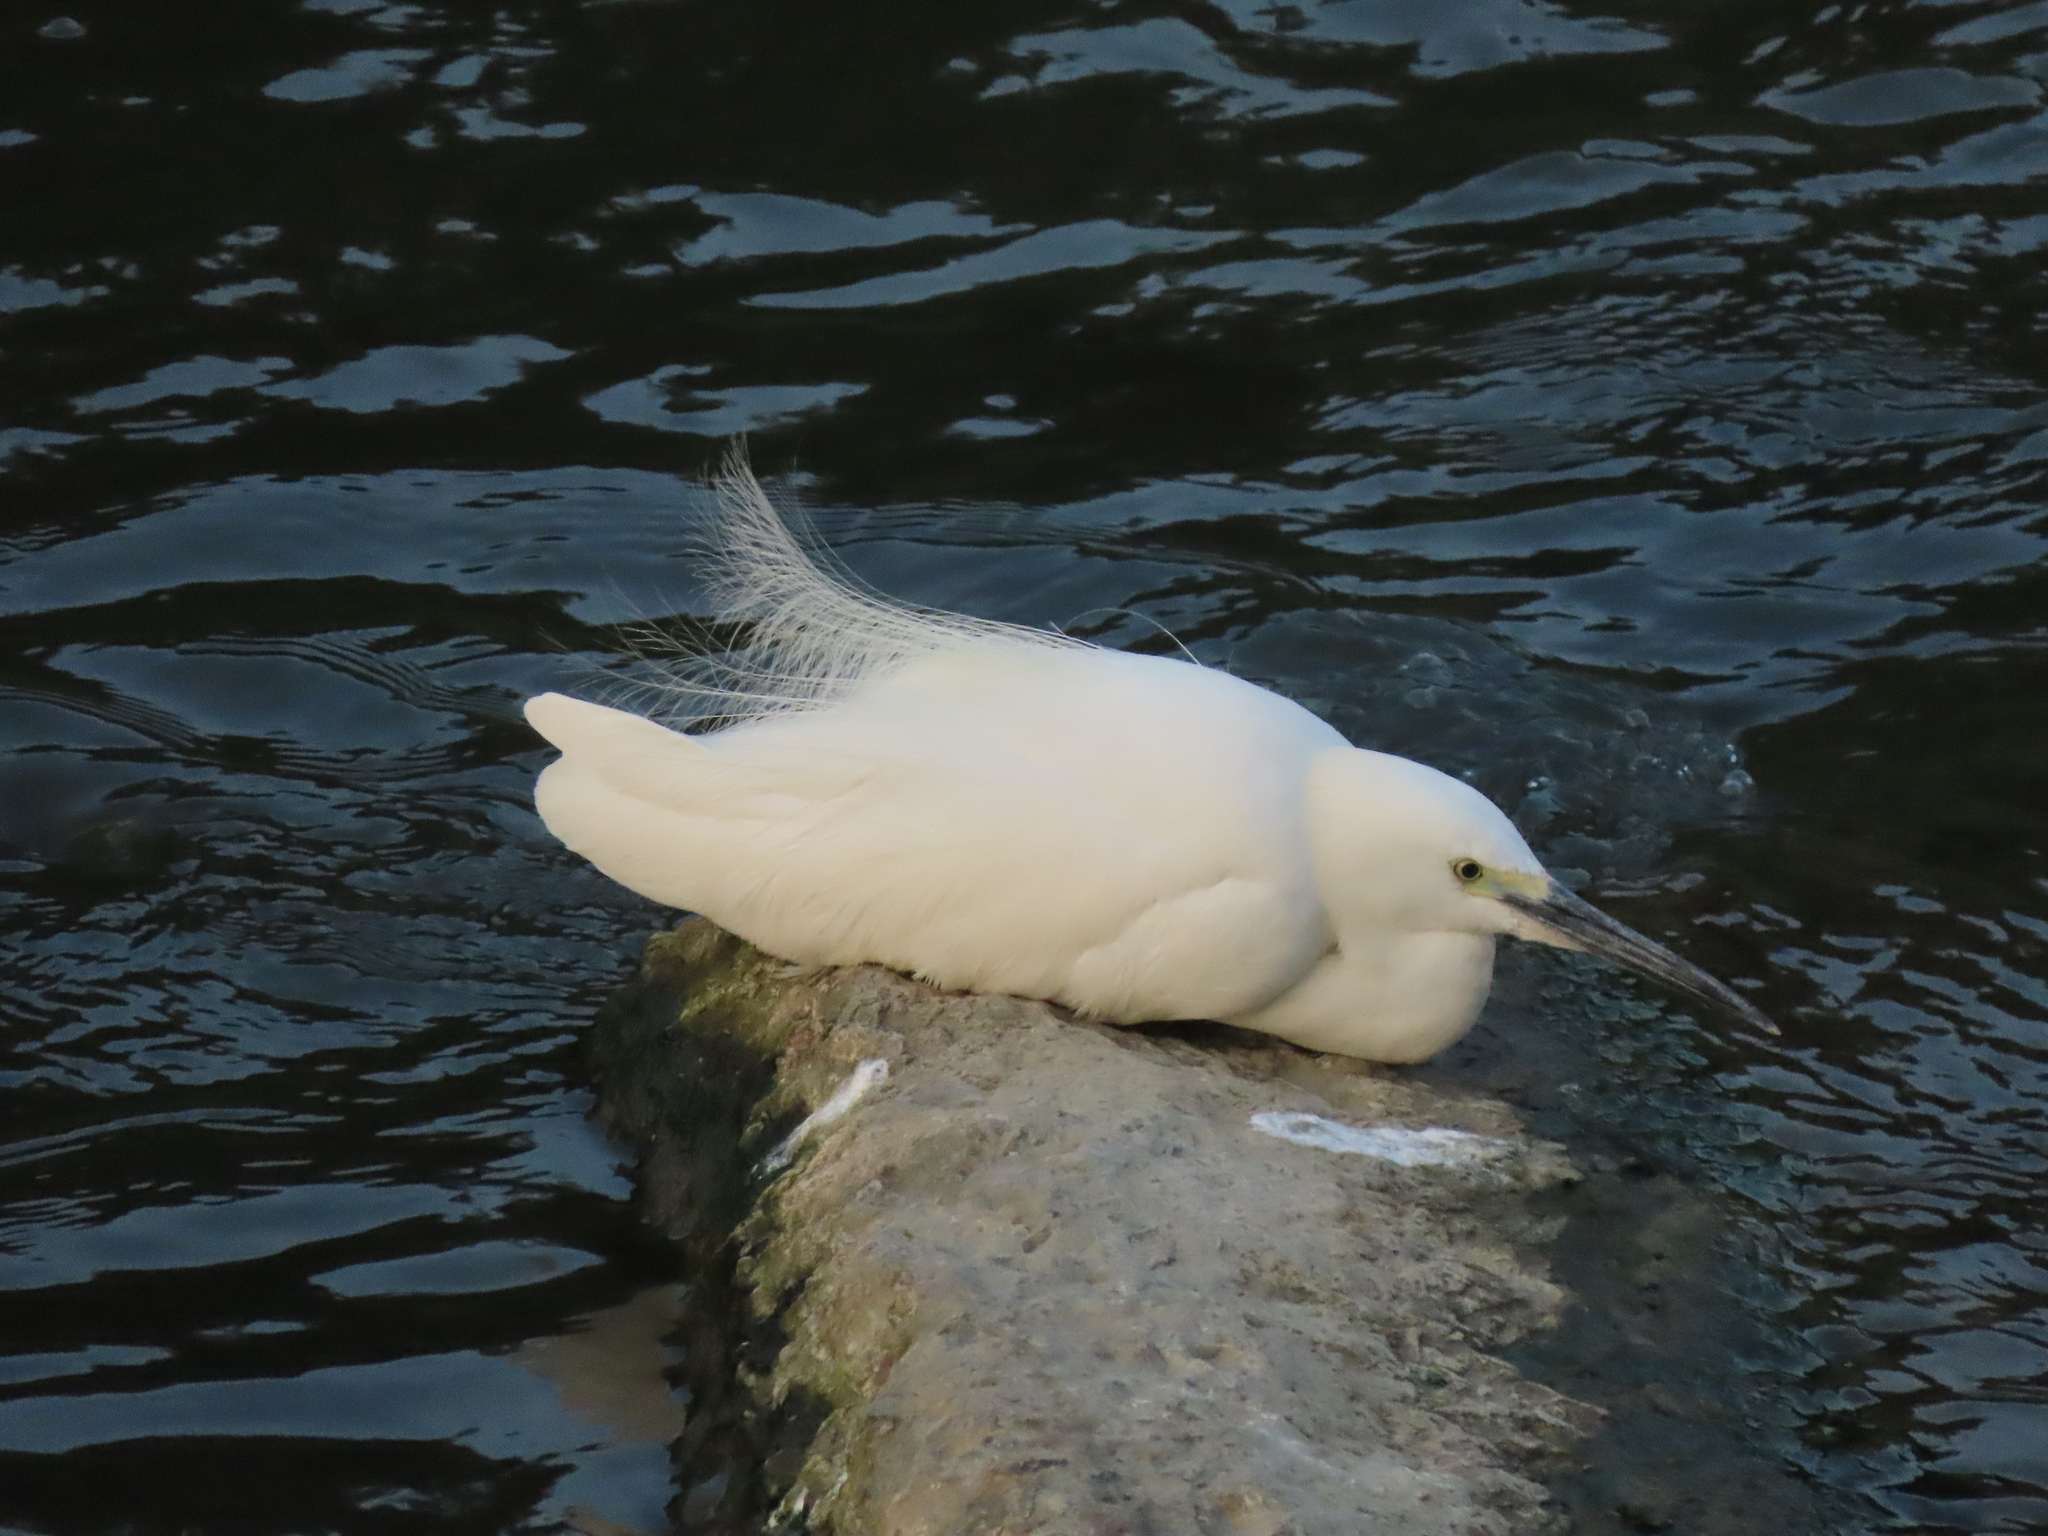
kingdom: Animalia
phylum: Chordata
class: Aves
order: Pelecaniformes
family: Ardeidae
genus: Egretta
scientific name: Egretta garzetta
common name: Little egret
